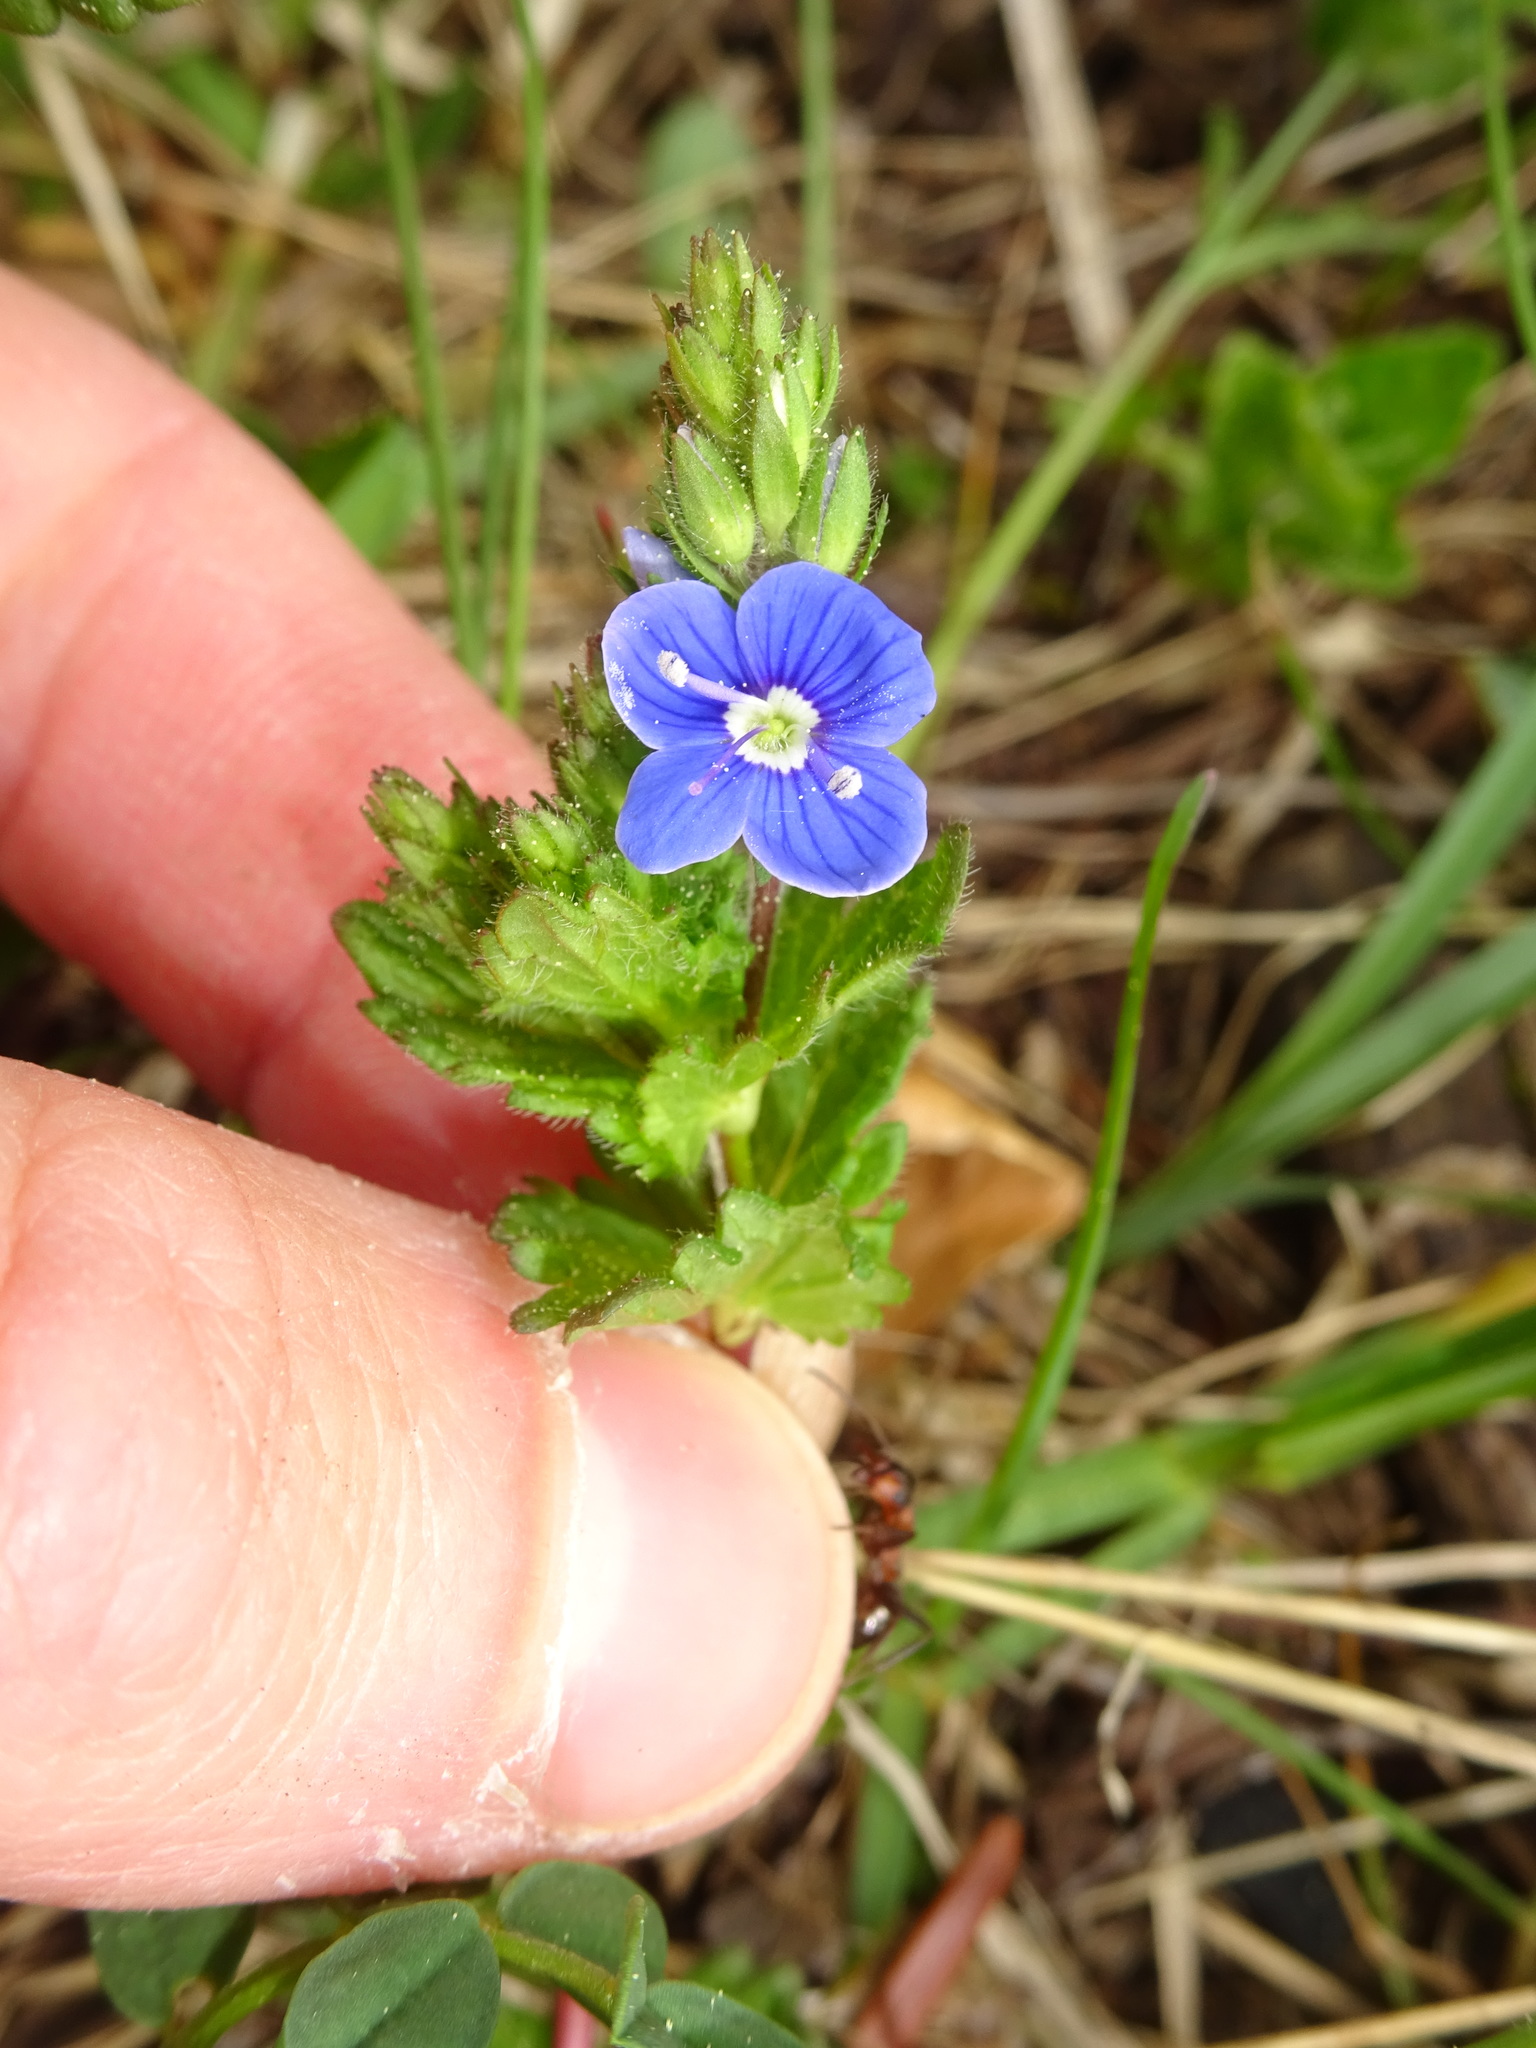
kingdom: Plantae
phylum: Tracheophyta
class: Magnoliopsida
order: Lamiales
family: Plantaginaceae
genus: Veronica
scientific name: Veronica chamaedrys
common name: Germander speedwell
